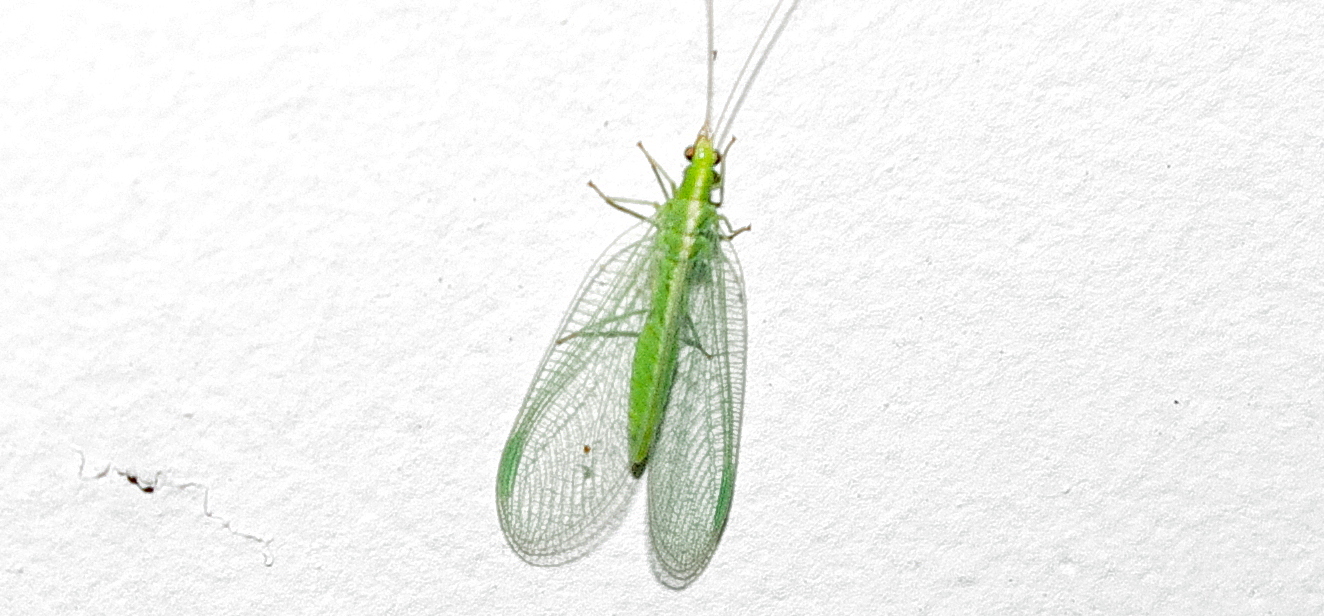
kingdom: Animalia
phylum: Arthropoda
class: Insecta
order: Neuroptera
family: Chrysopidae
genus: Chrysoperla
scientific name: Chrysoperla
